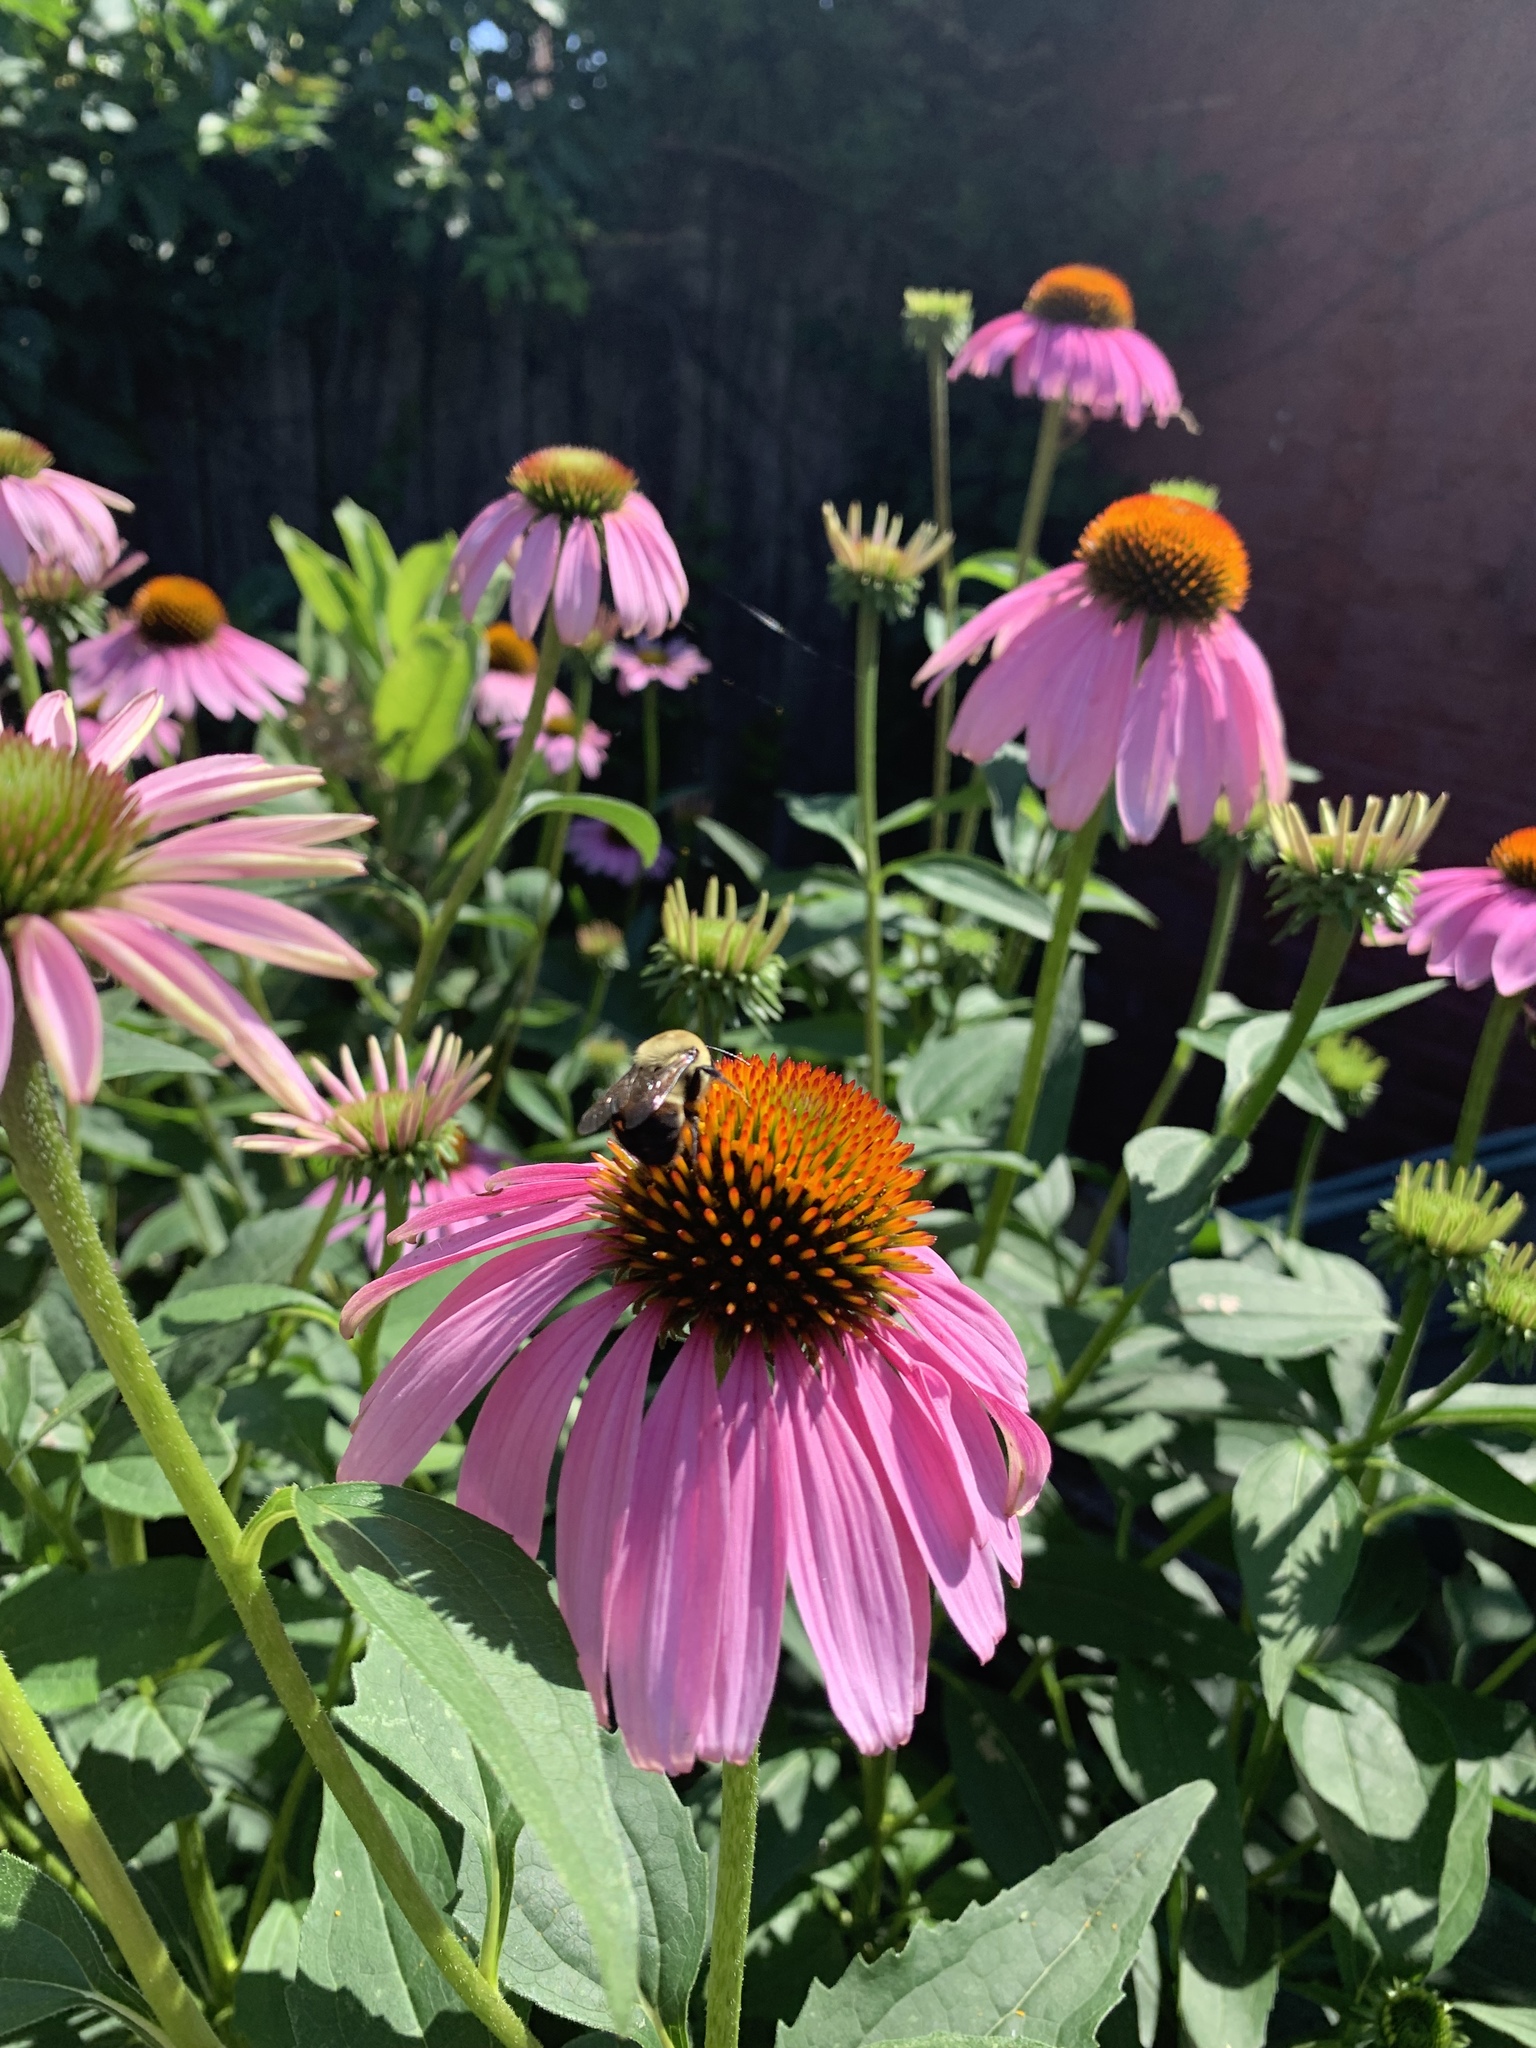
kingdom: Animalia
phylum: Arthropoda
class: Insecta
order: Hymenoptera
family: Apidae
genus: Bombus
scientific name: Bombus griseocollis
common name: Brown-belted bumble bee
